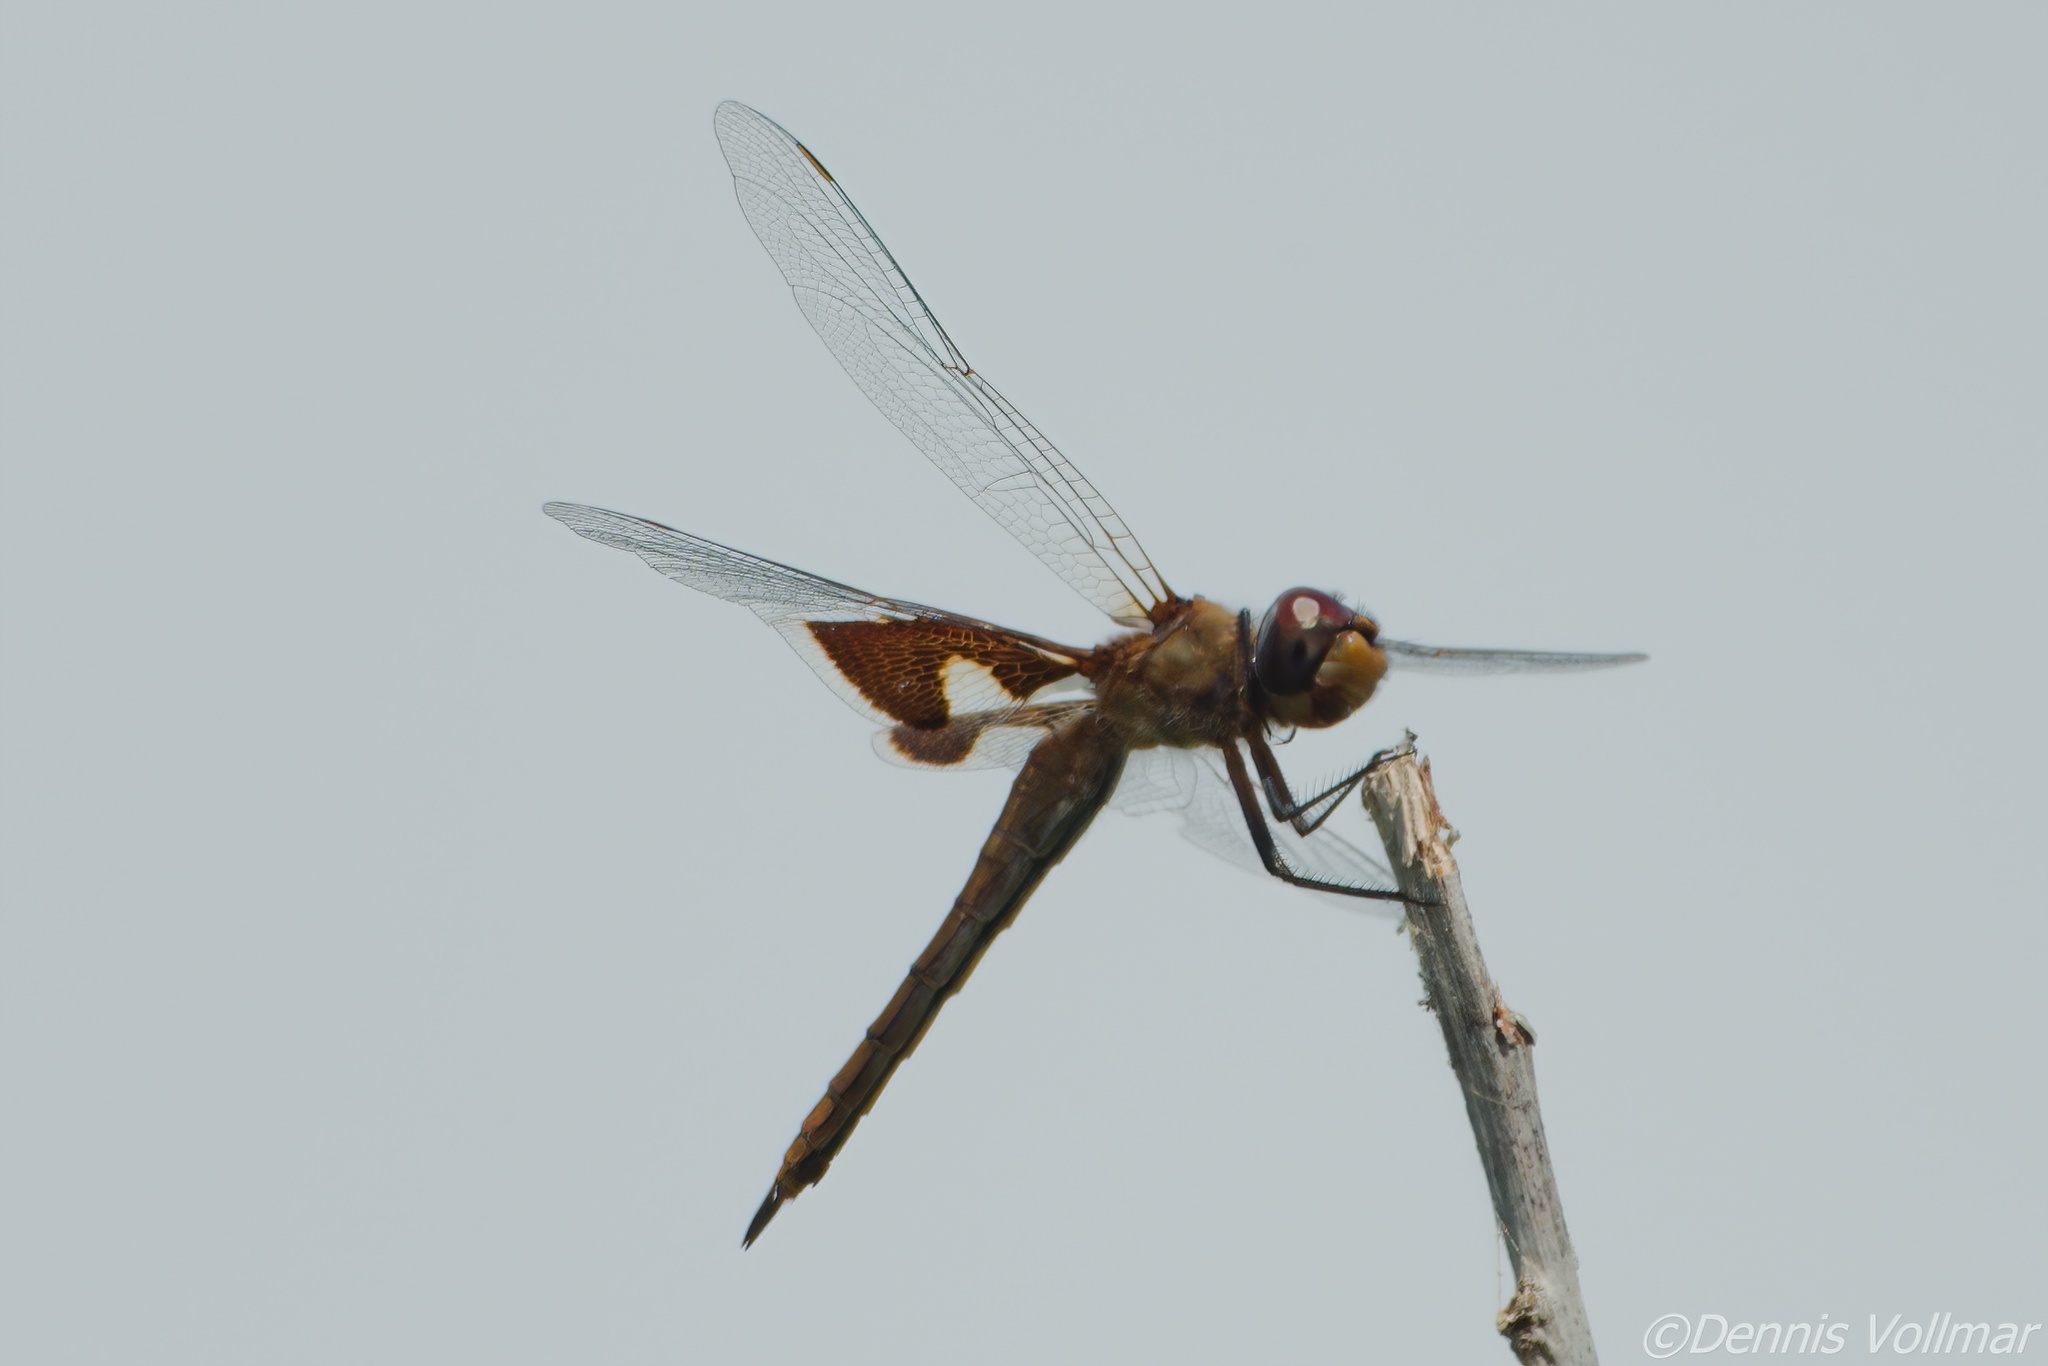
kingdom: Animalia
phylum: Arthropoda
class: Insecta
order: Odonata
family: Libellulidae
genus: Tramea
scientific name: Tramea onusta
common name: Red saddlebags
